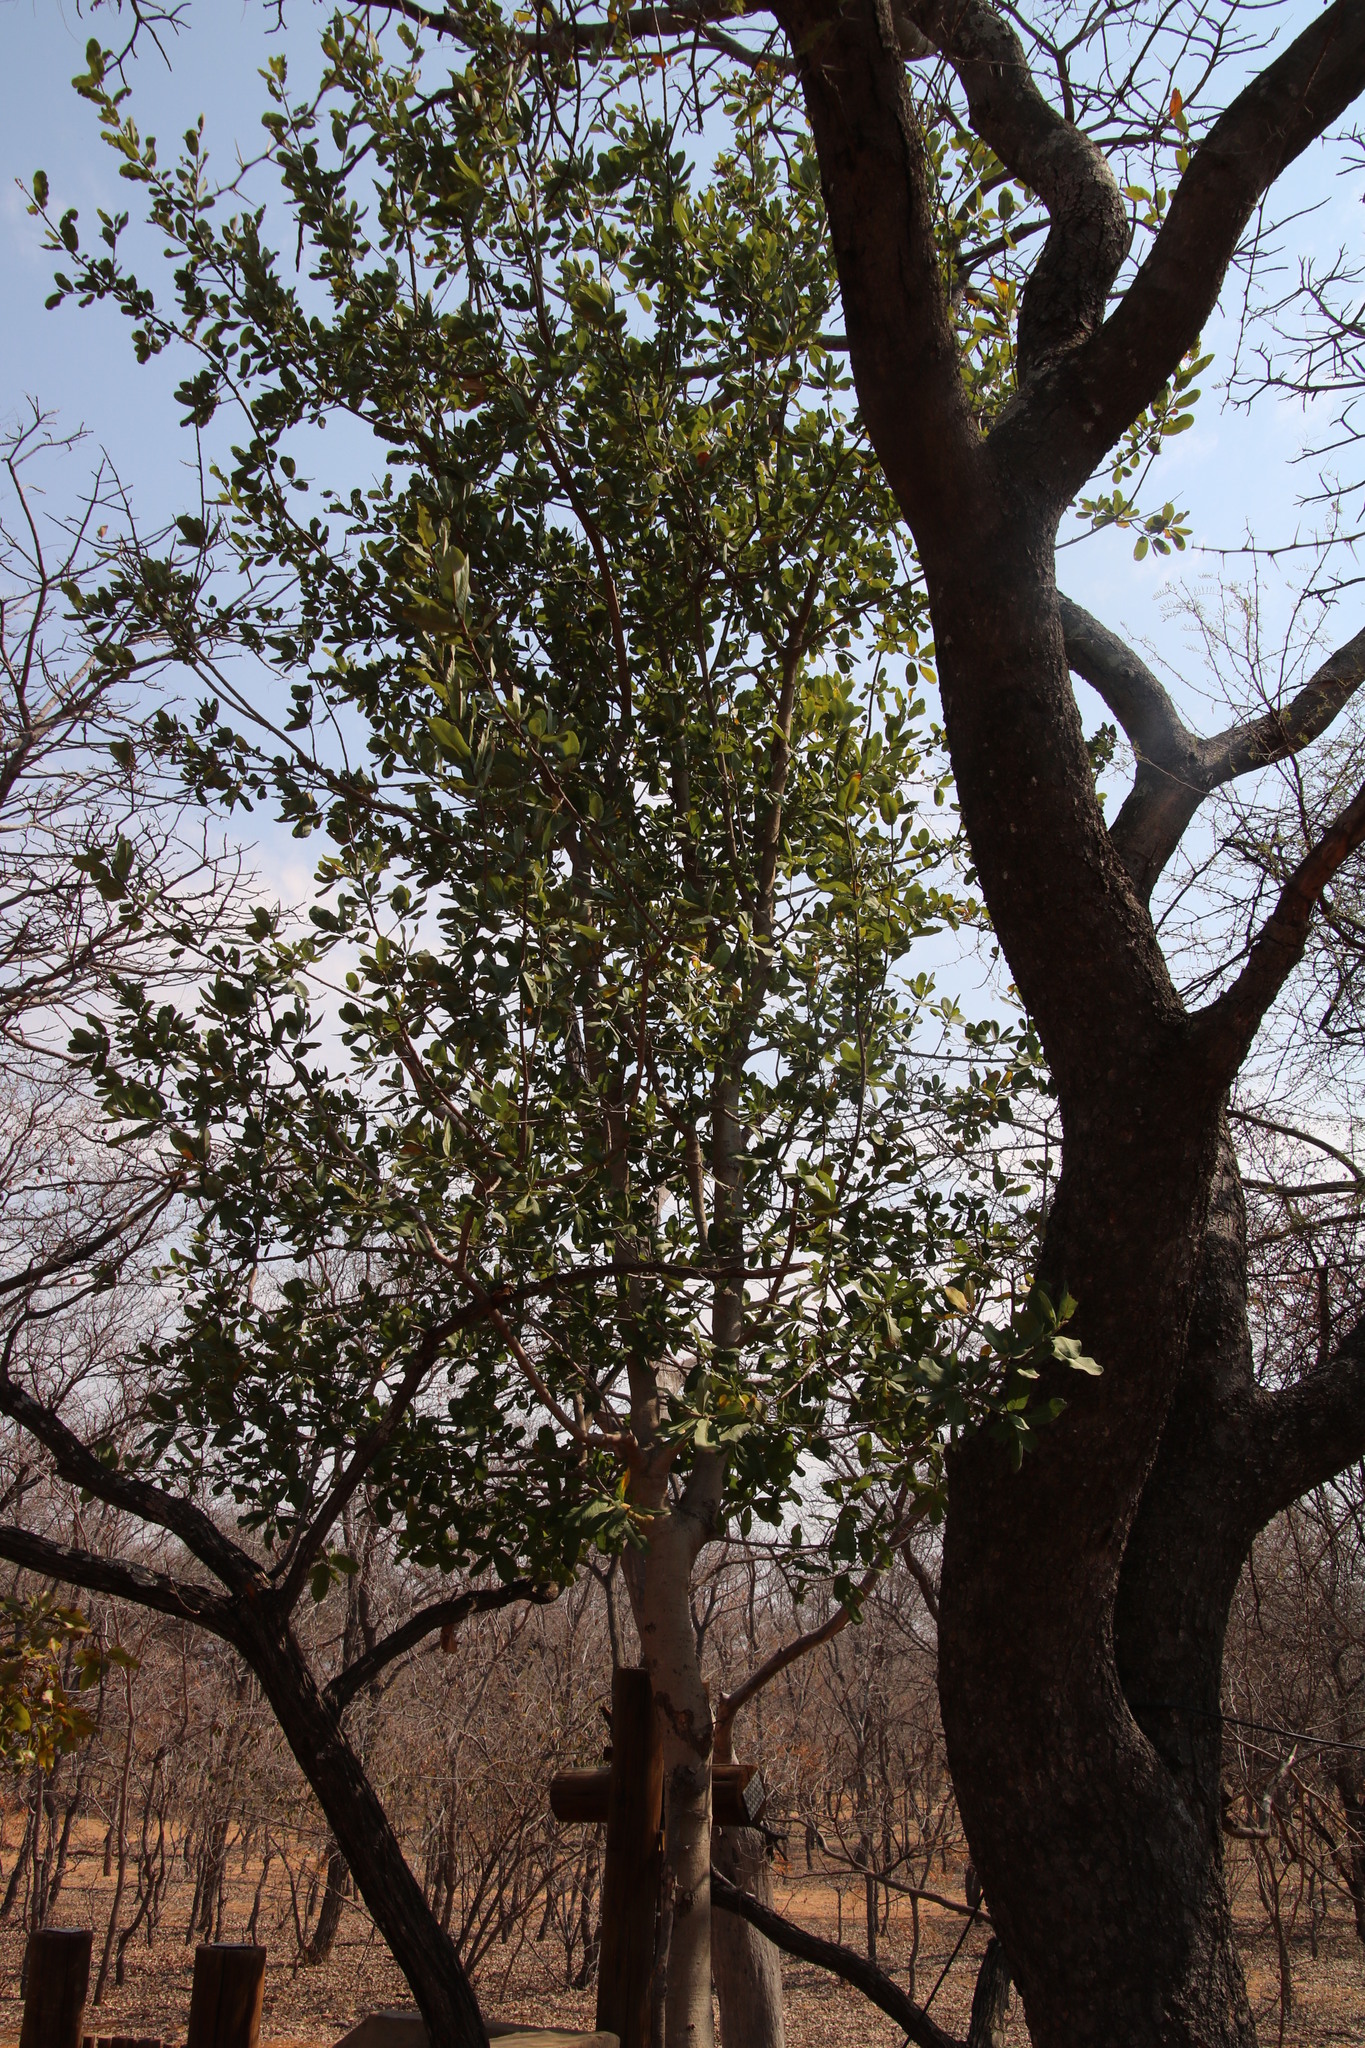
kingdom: Plantae
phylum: Tracheophyta
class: Magnoliopsida
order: Sapindales
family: Sapindaceae
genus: Pappea
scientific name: Pappea capensis
